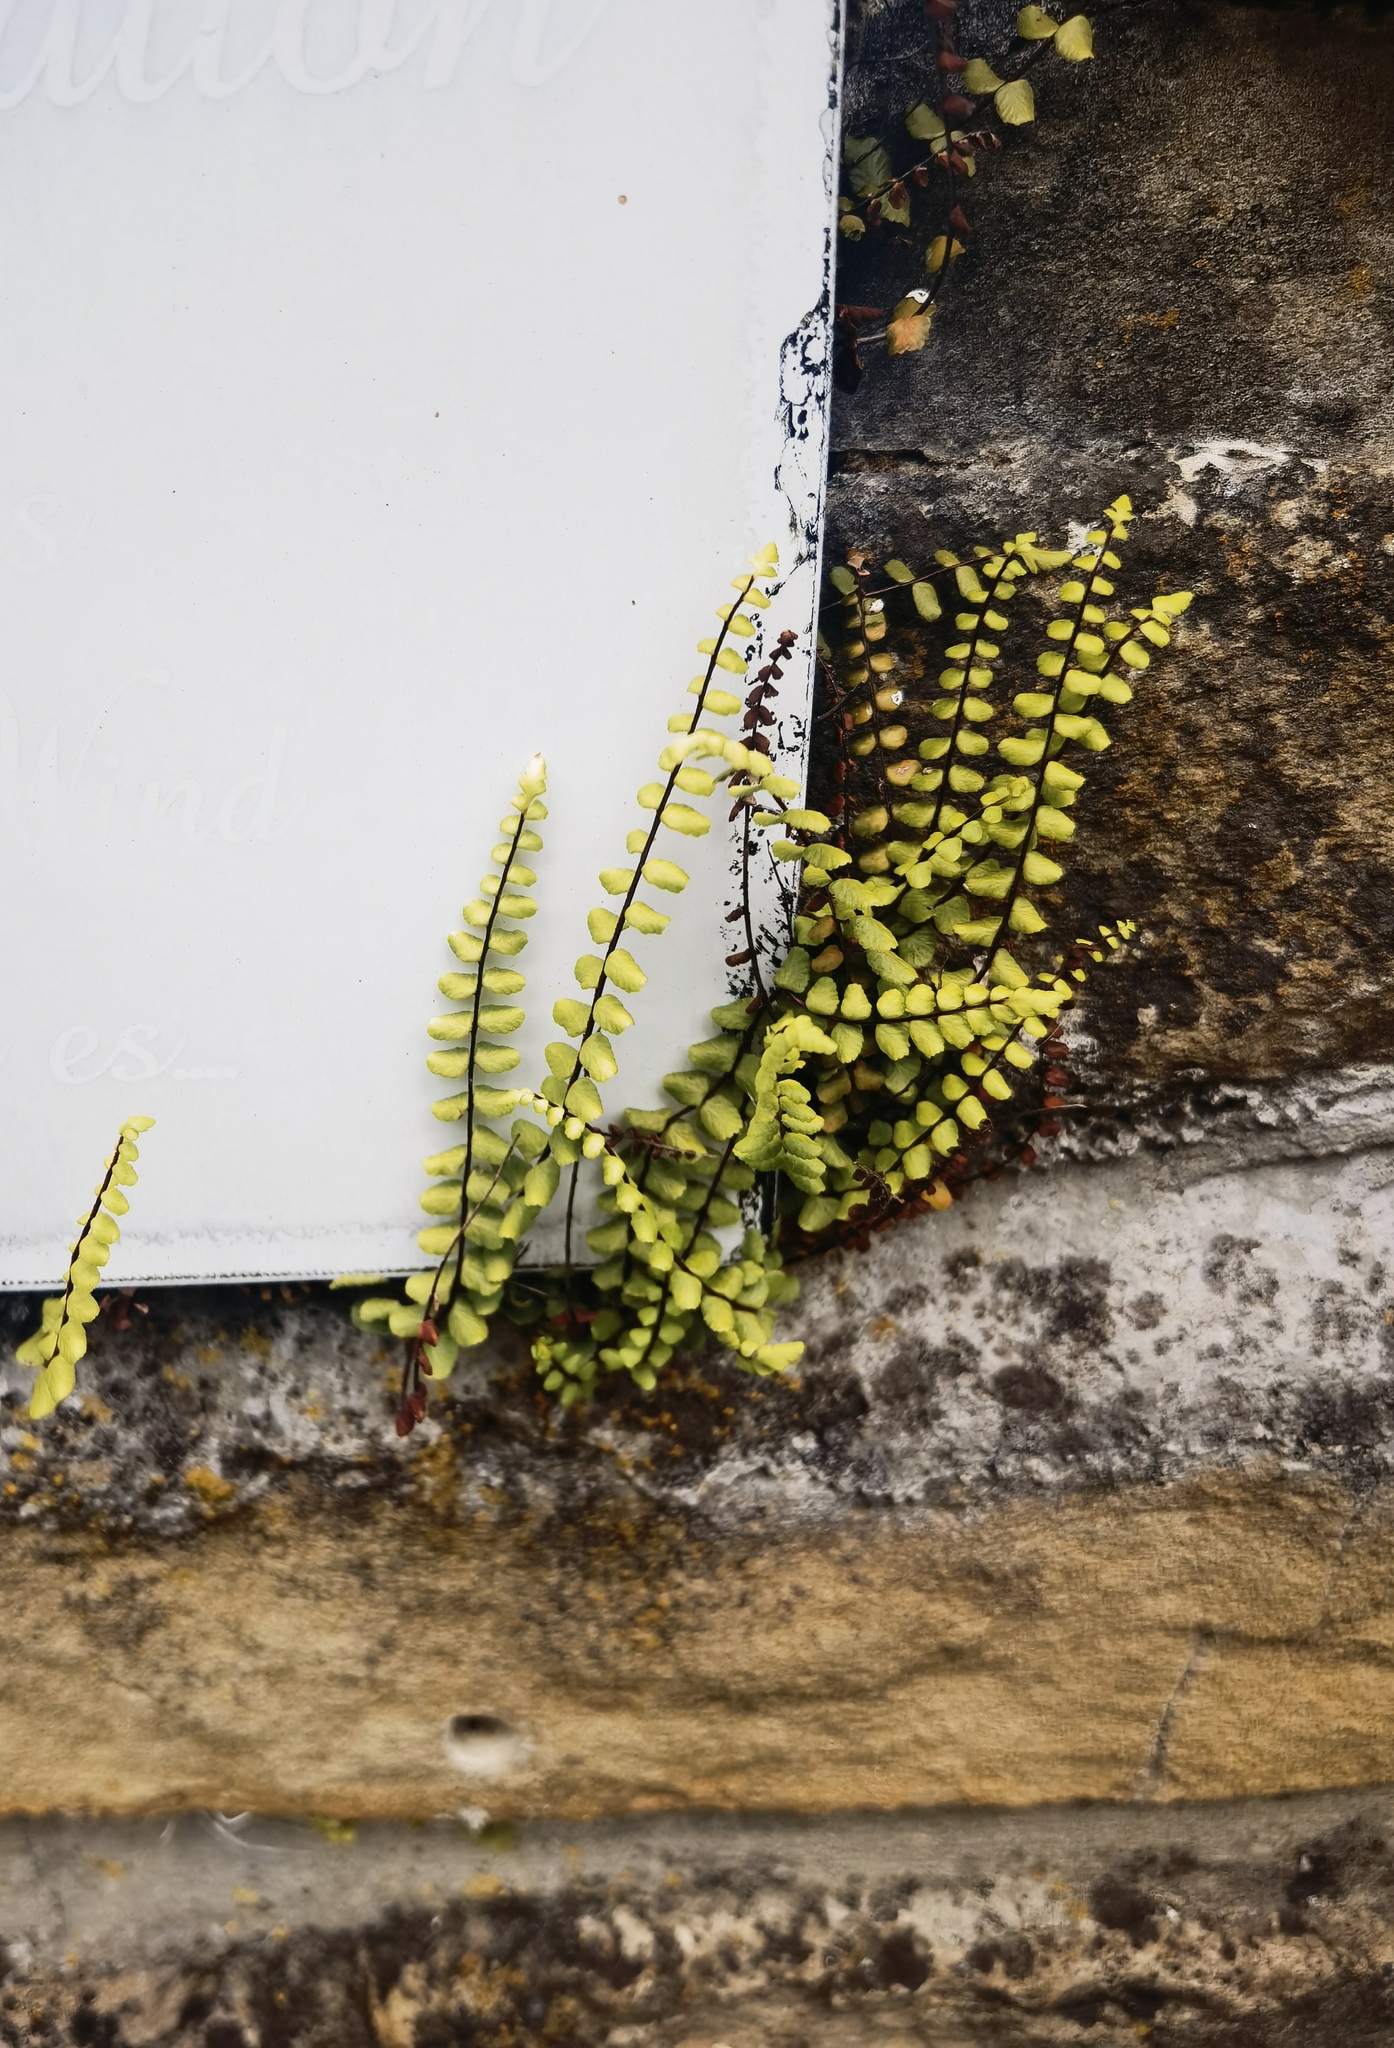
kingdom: Plantae
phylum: Tracheophyta
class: Polypodiopsida
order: Polypodiales
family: Aspleniaceae
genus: Asplenium
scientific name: Asplenium trichomanes
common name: Maidenhair spleenwort
